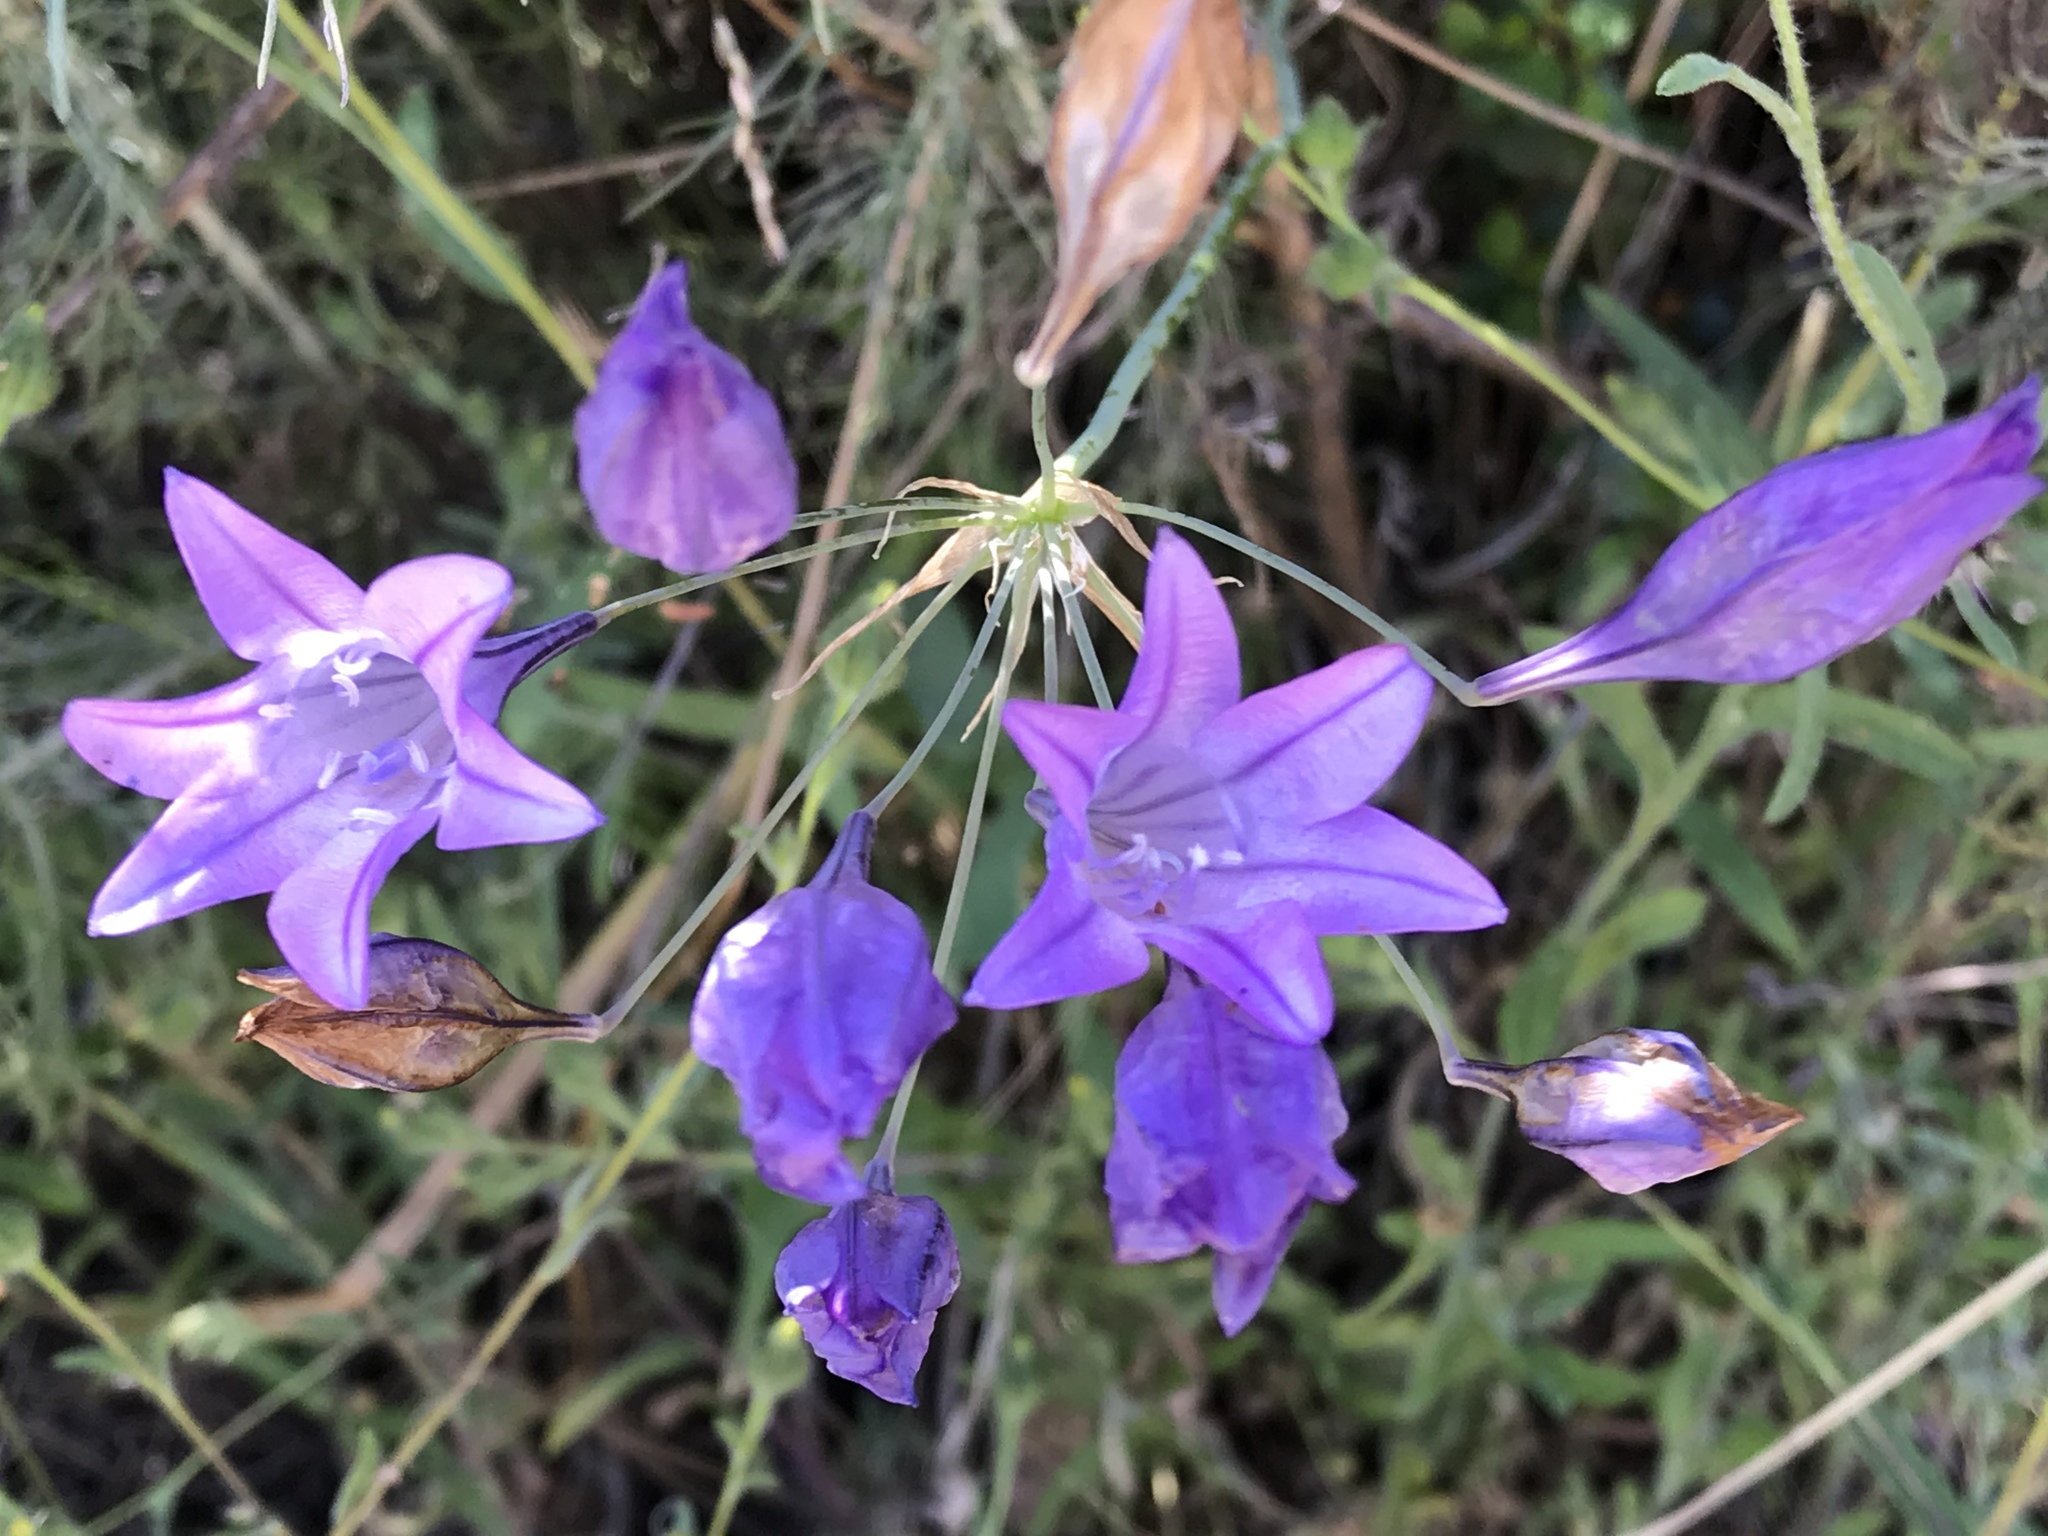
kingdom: Plantae
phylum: Tracheophyta
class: Liliopsida
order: Asparagales
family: Asparagaceae
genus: Triteleia
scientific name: Triteleia laxa
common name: Triplet-lily
